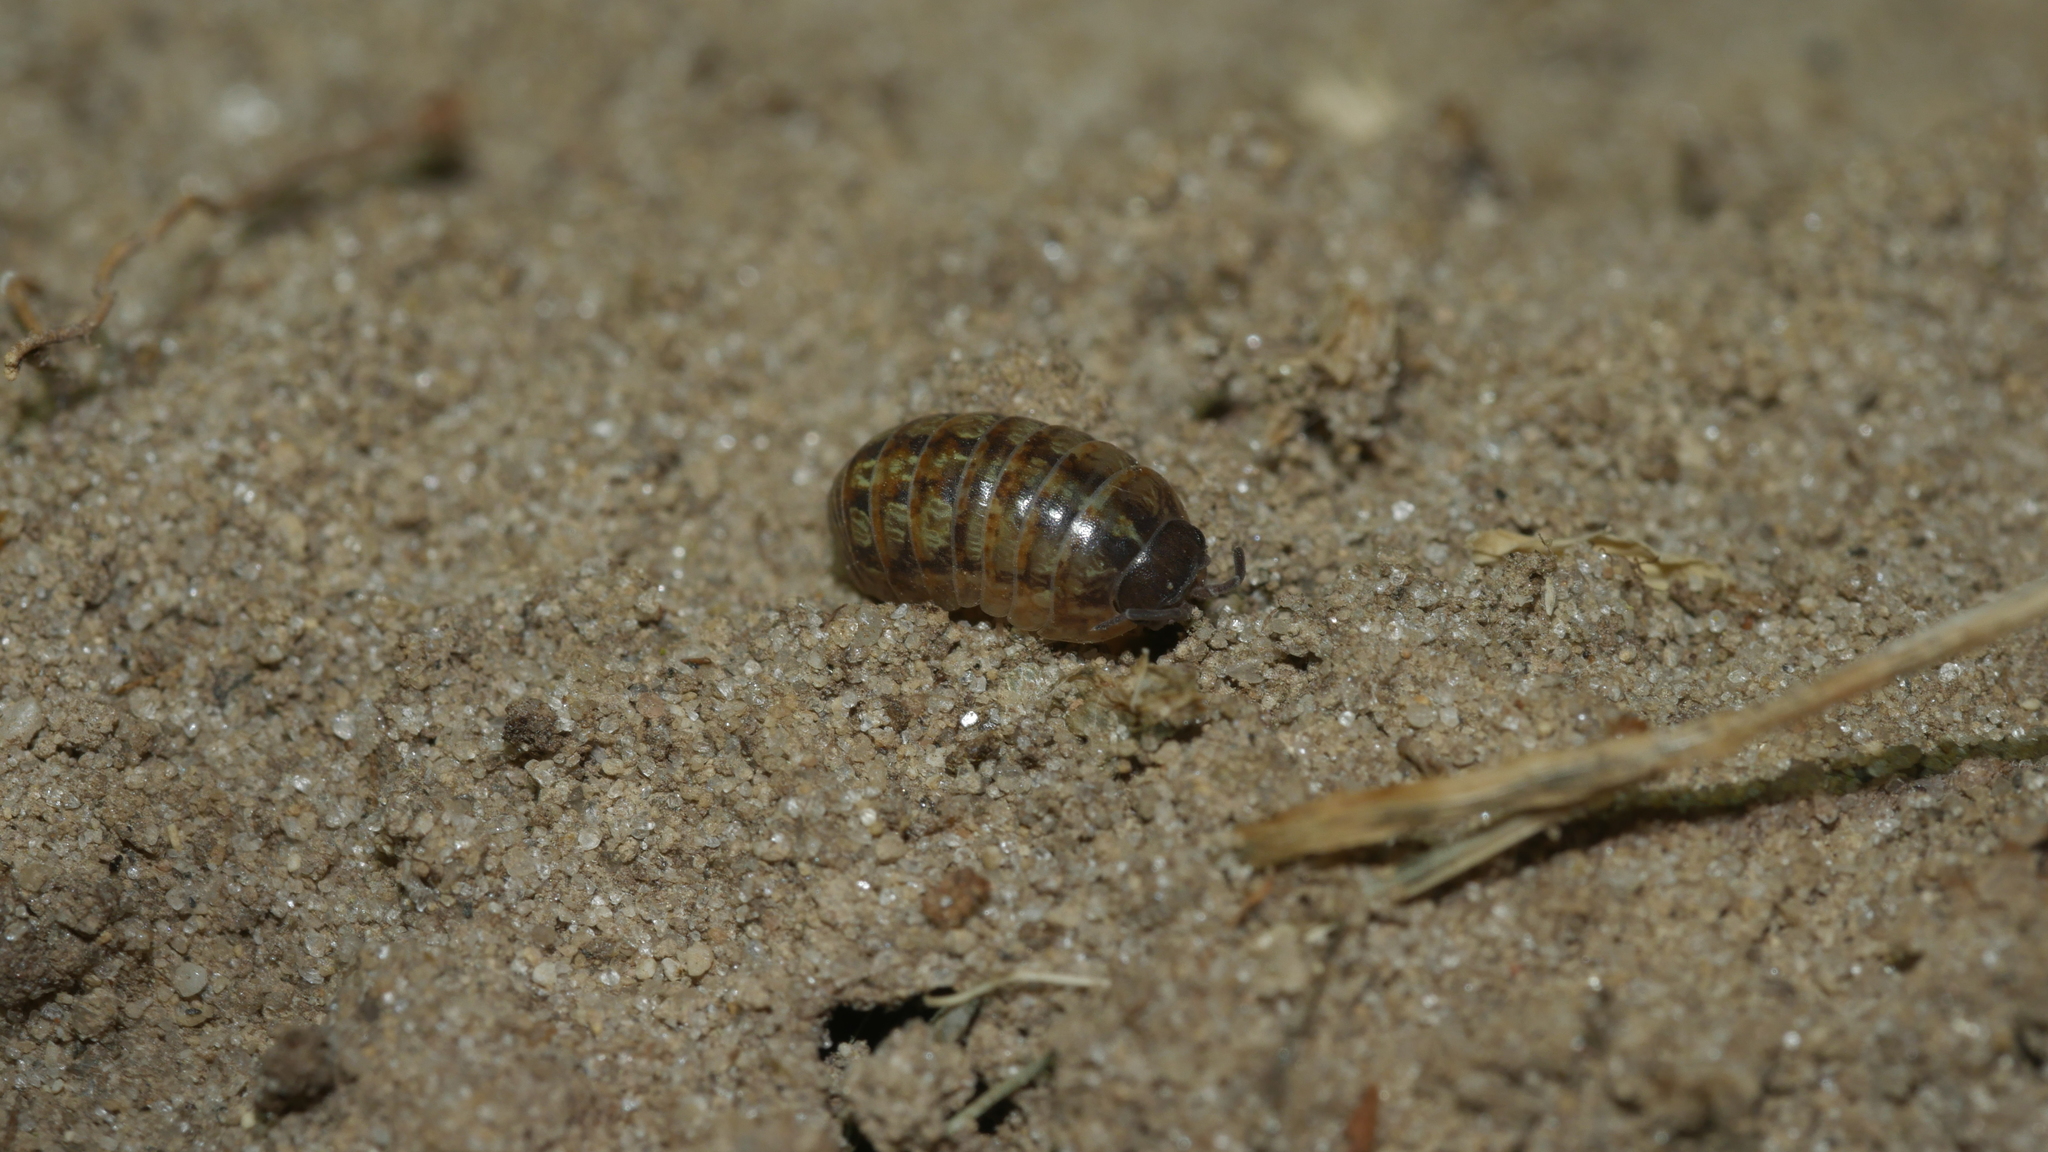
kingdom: Animalia
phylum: Arthropoda
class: Malacostraca
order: Isopoda
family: Armadillidiidae
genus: Armadillidium
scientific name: Armadillidium vulgare
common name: Common pill woodlouse
